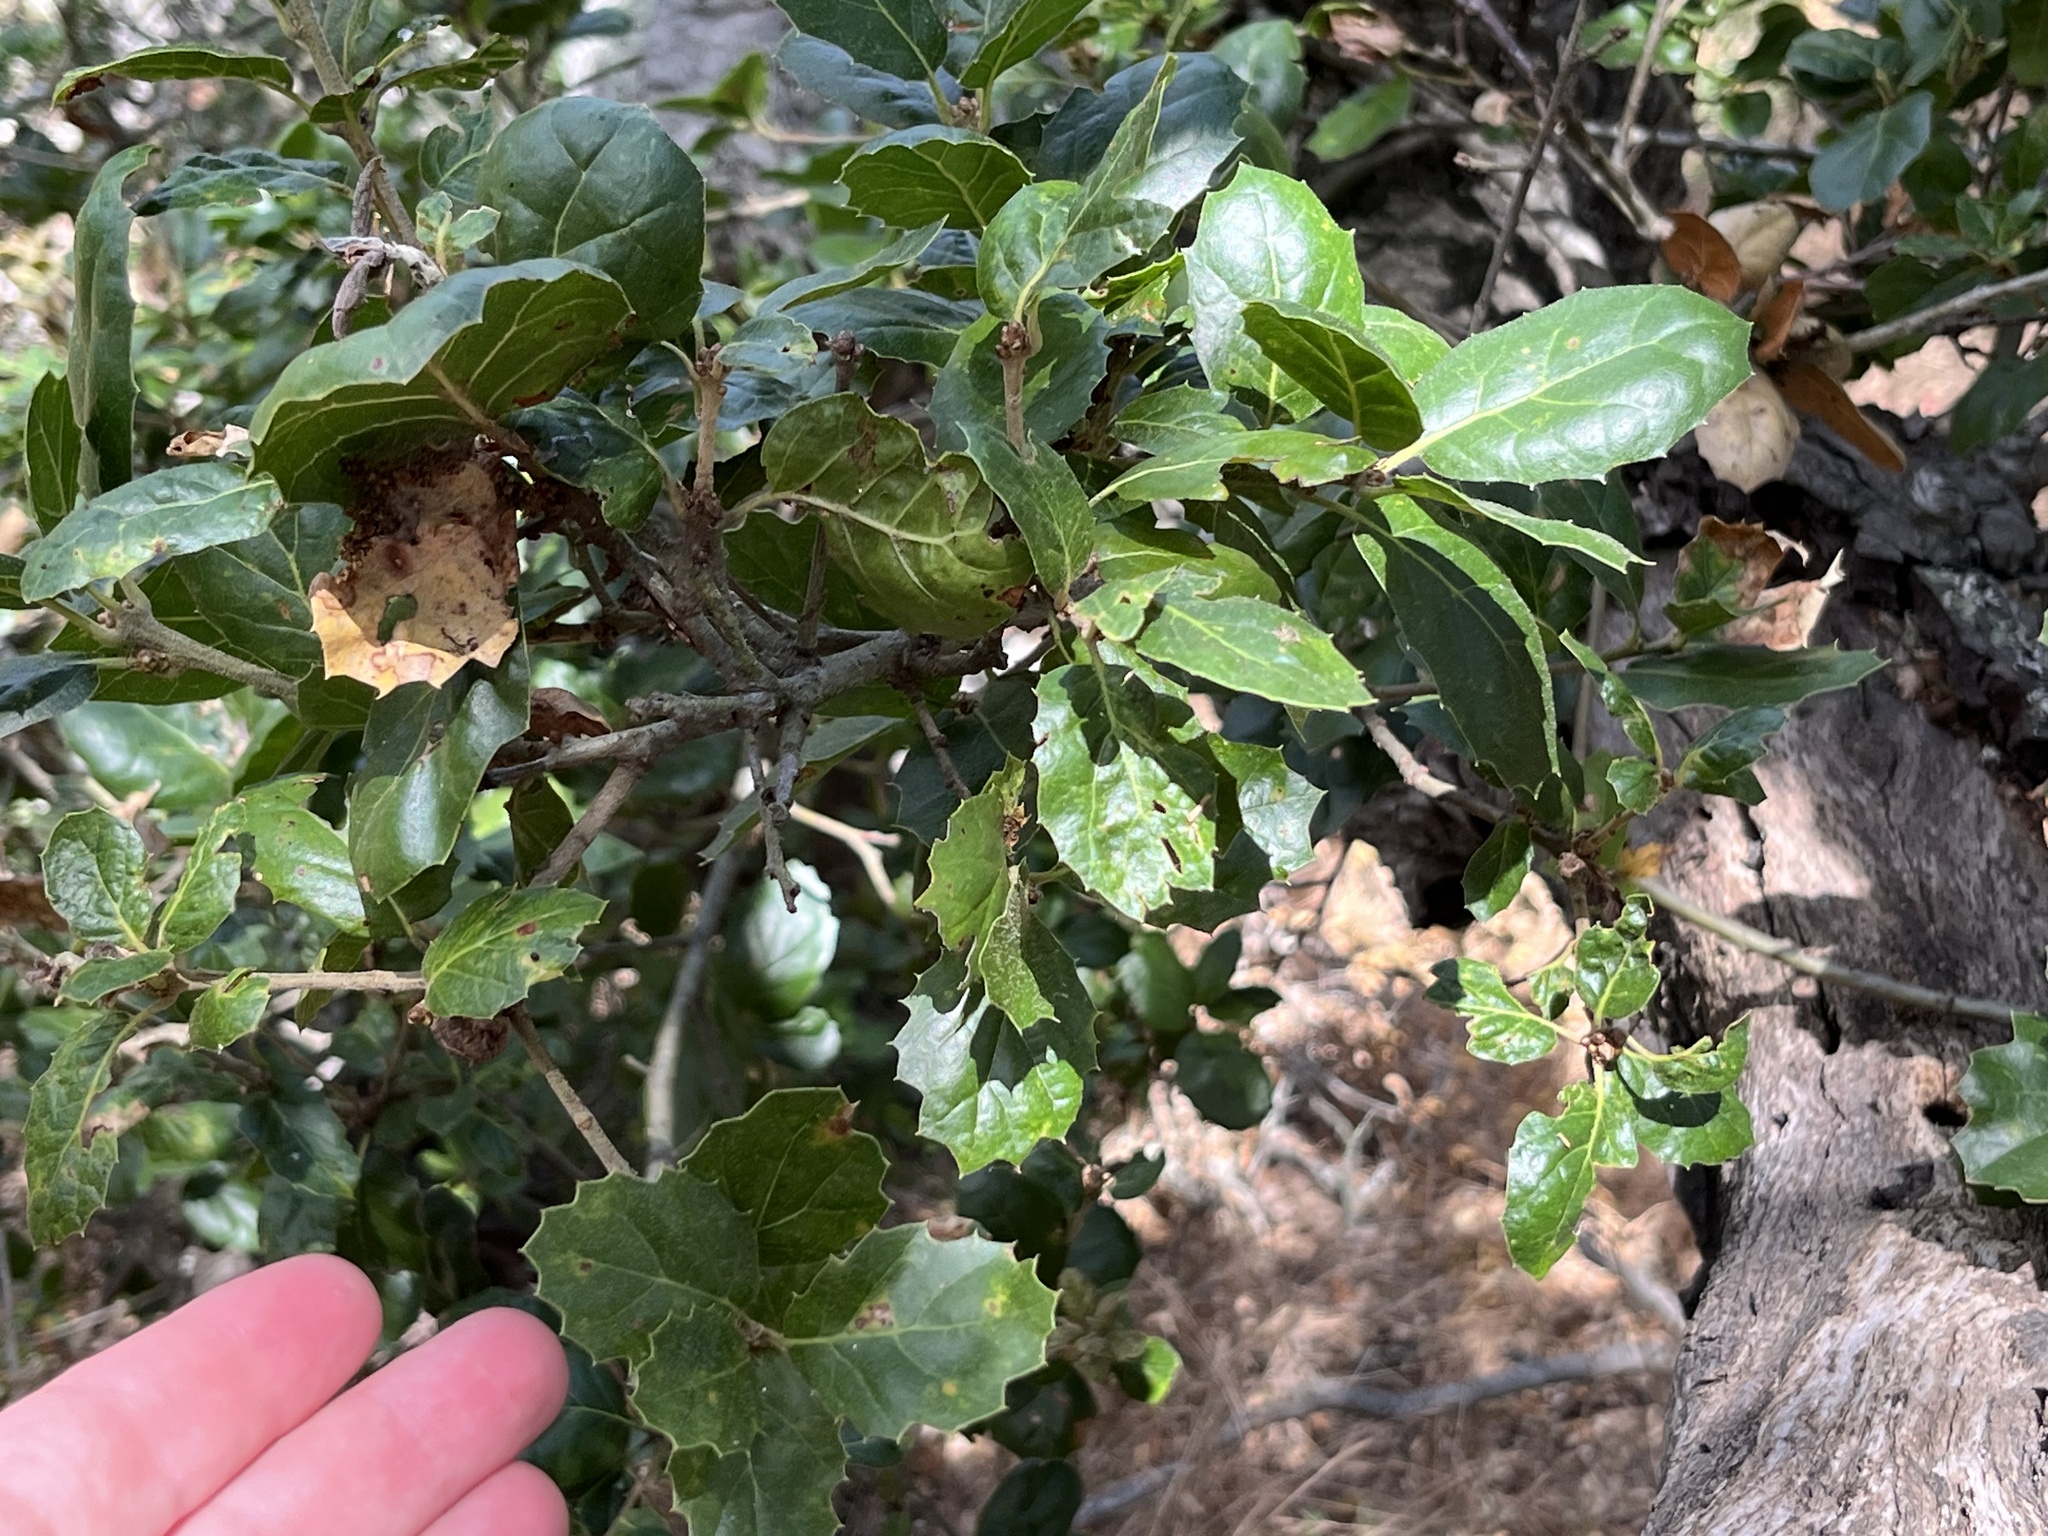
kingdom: Plantae
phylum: Tracheophyta
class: Magnoliopsida
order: Fagales
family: Fagaceae
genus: Quercus
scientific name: Quercus agrifolia
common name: California live oak
